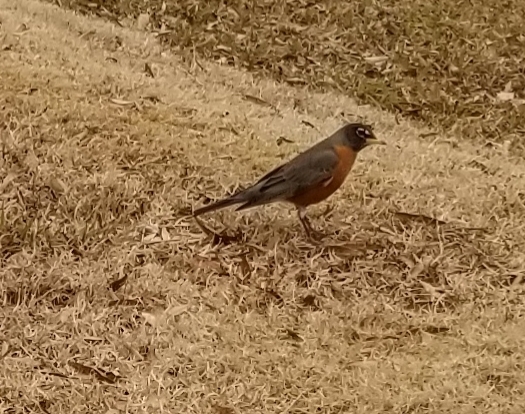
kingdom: Animalia
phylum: Chordata
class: Aves
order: Passeriformes
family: Turdidae
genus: Turdus
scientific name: Turdus migratorius
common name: American robin
